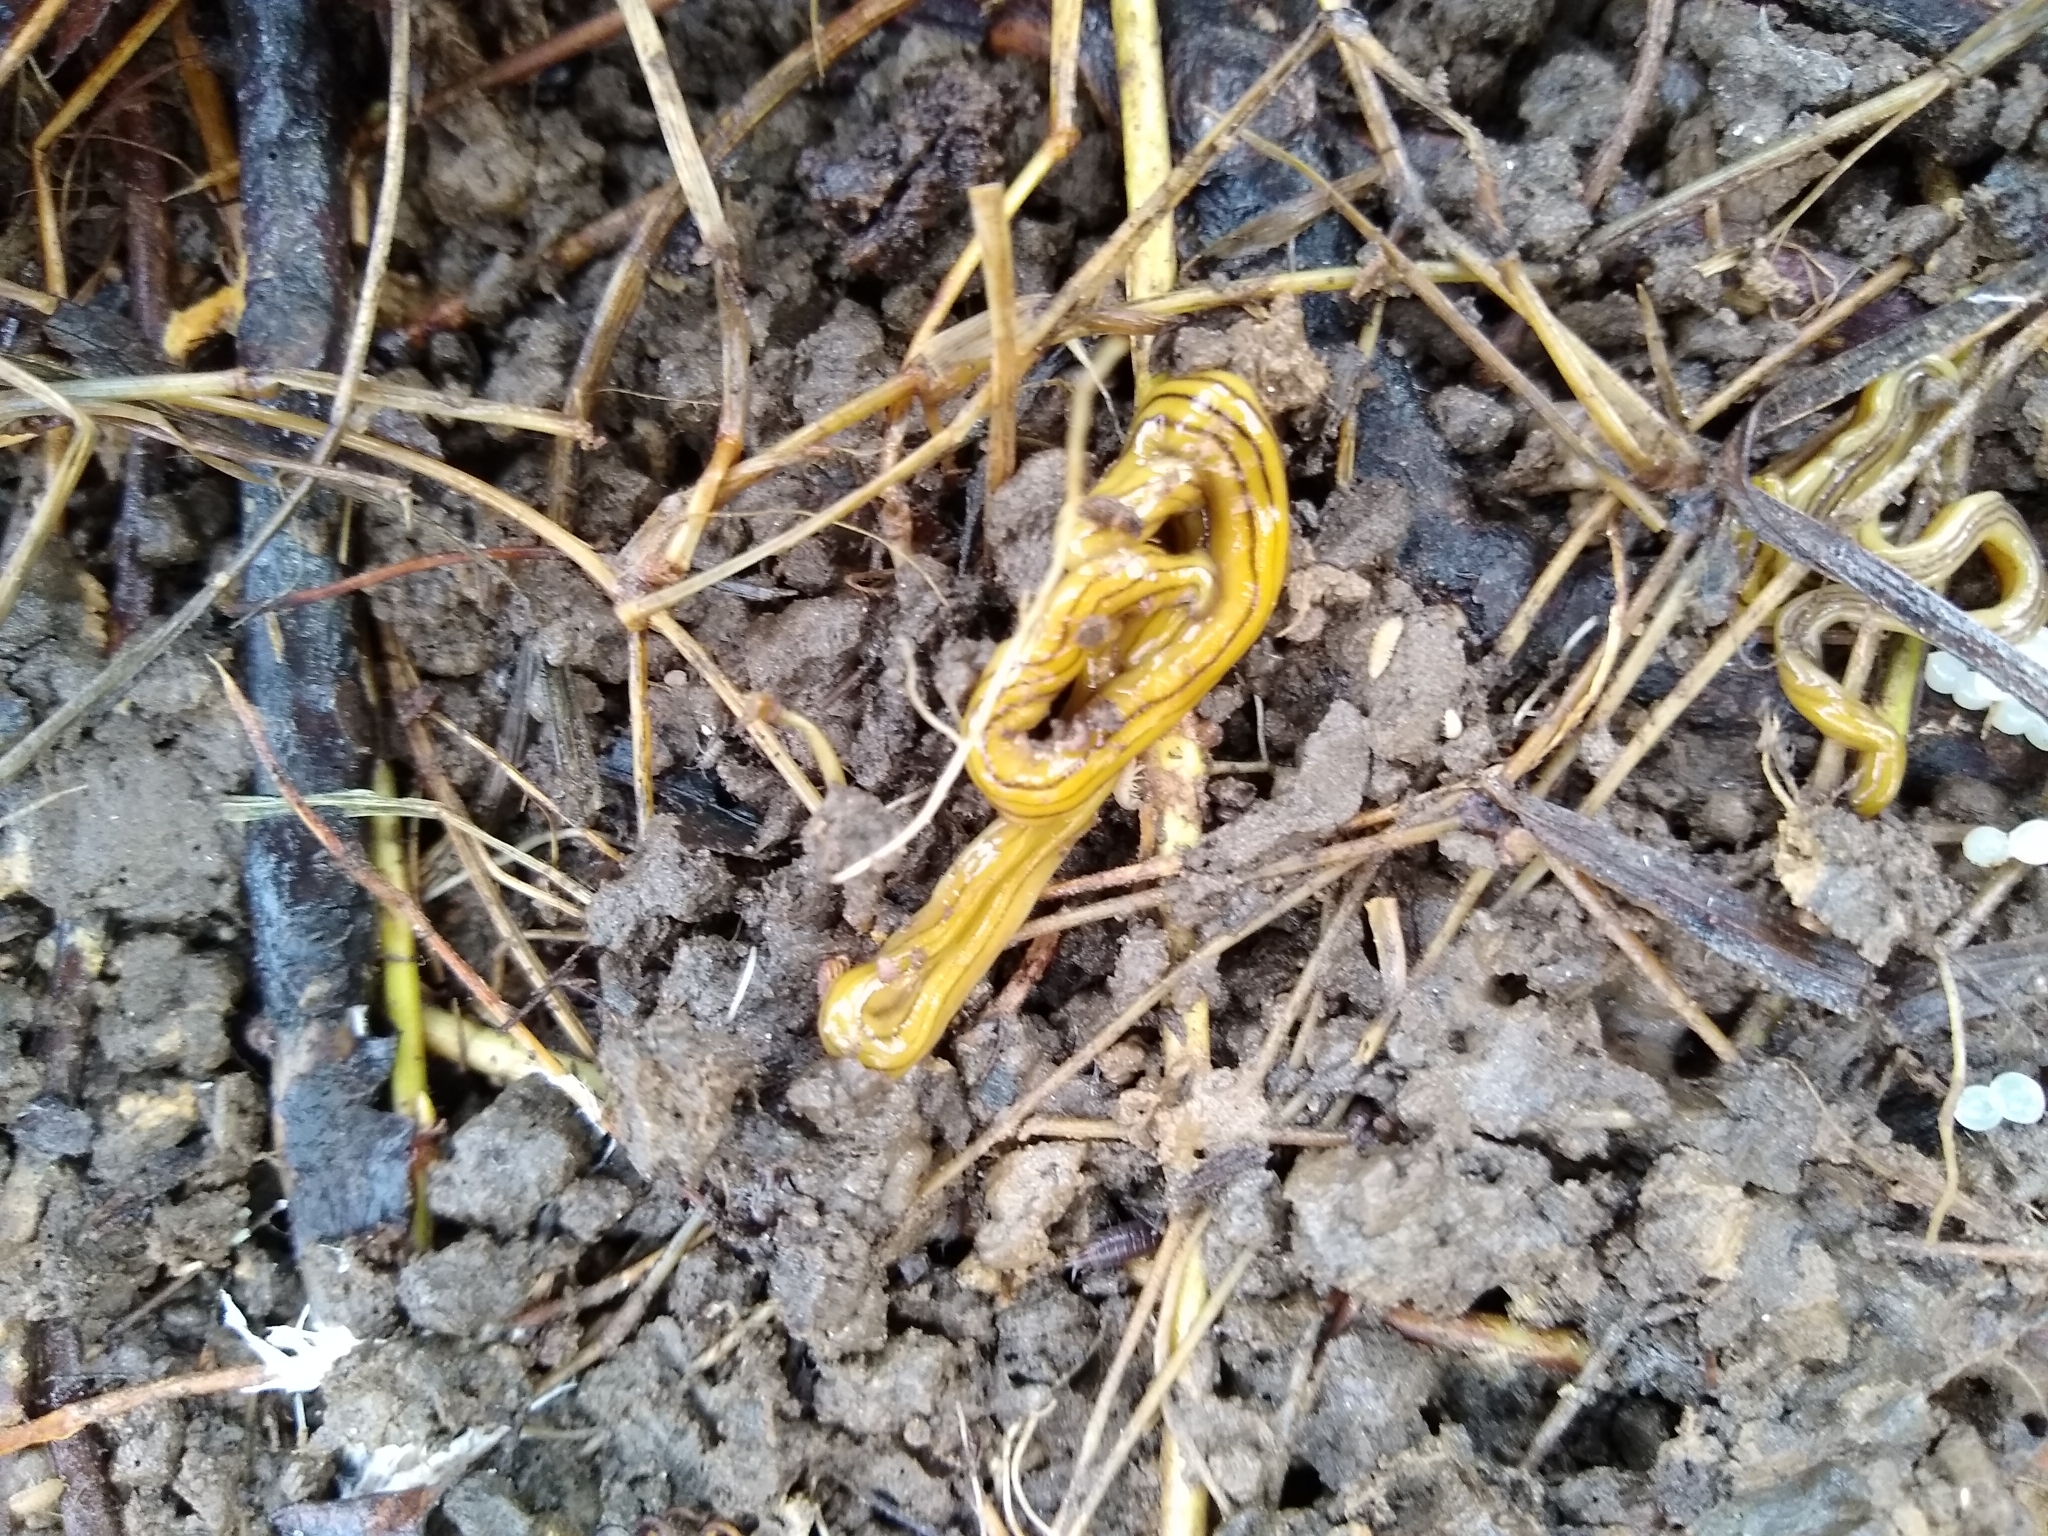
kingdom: Animalia
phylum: Platyhelminthes
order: Tricladida
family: Geoplanidae
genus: Diversibipalium
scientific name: Diversibipalium multilineatum
